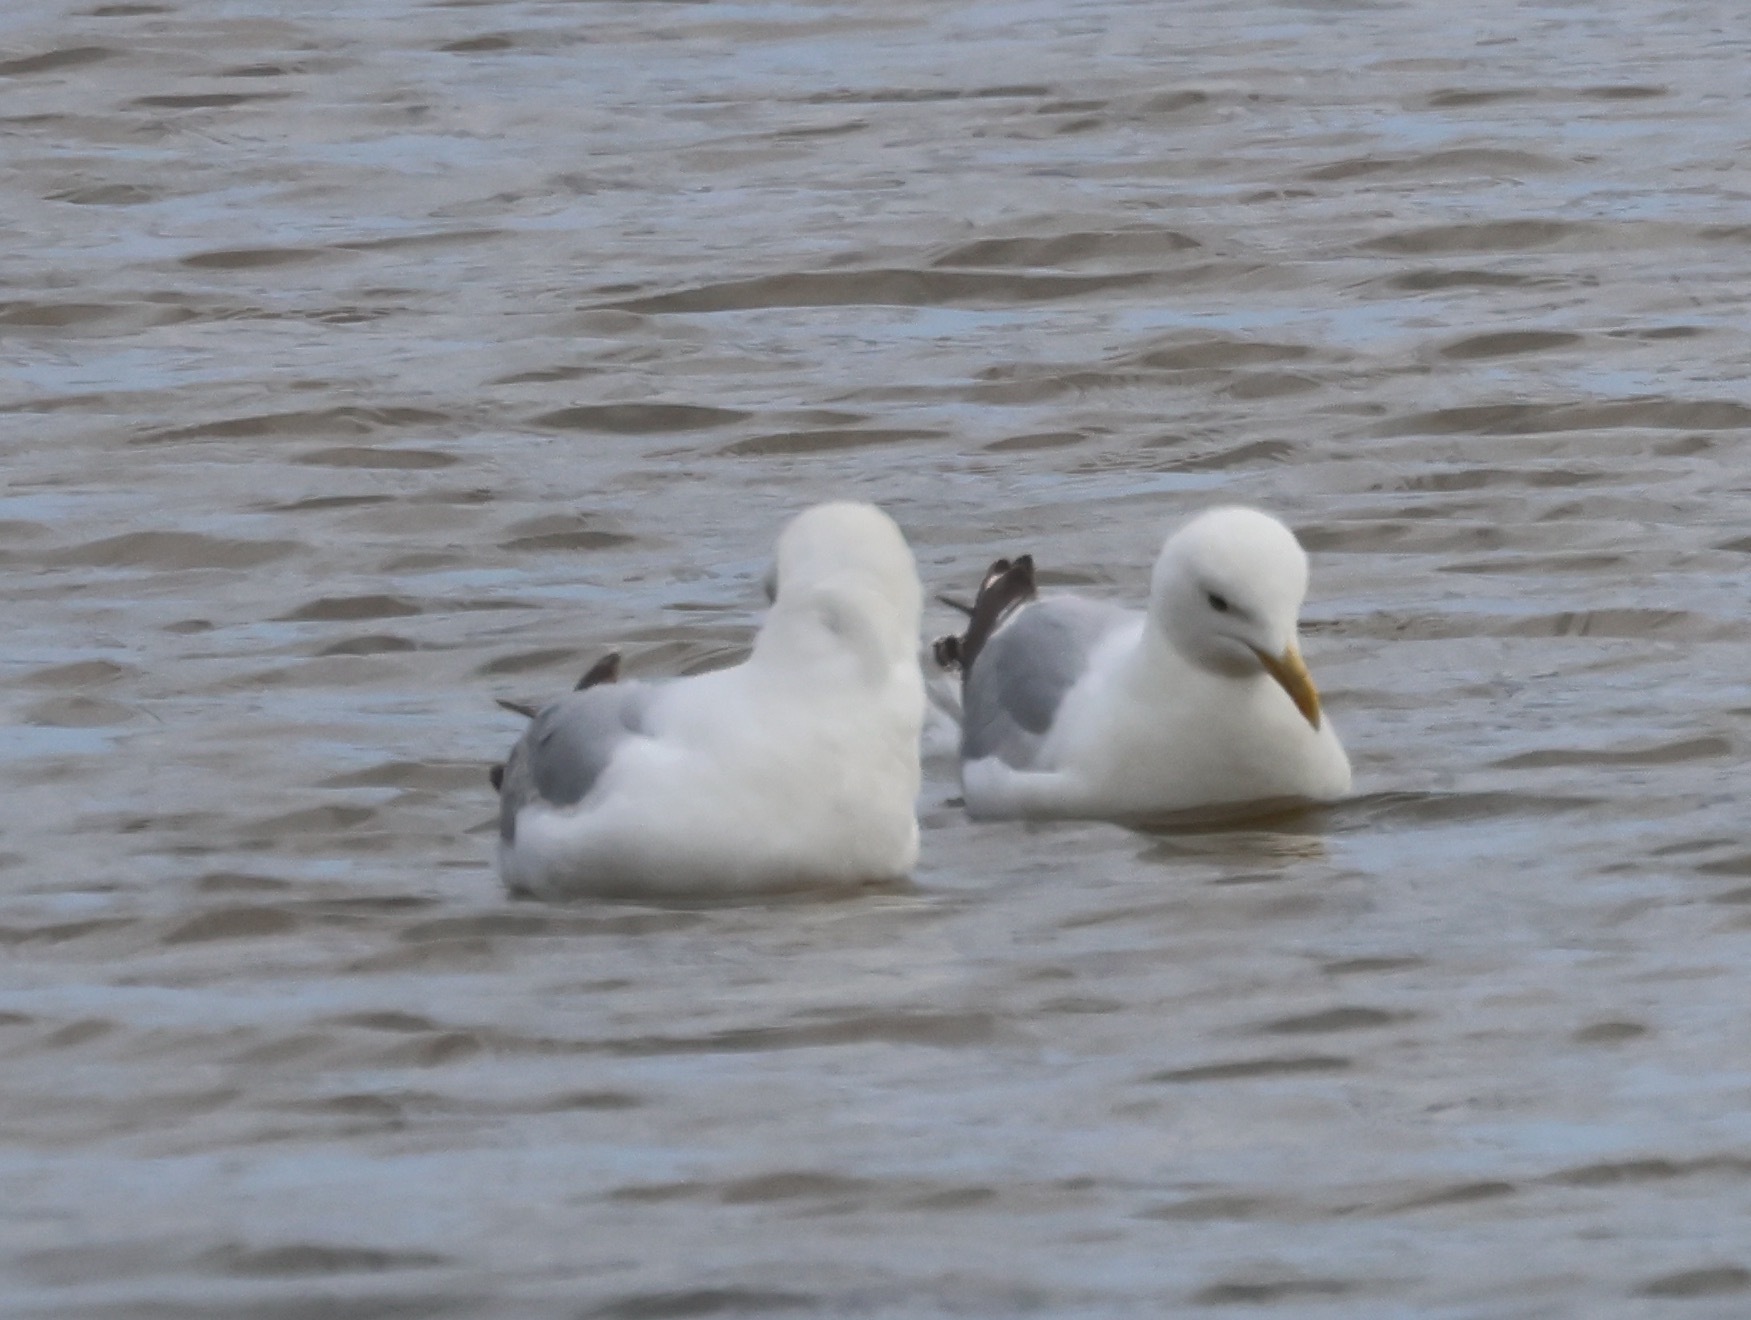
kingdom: Animalia
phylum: Chordata
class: Aves
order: Charadriiformes
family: Laridae
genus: Larus
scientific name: Larus argentatus
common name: Herring gull
